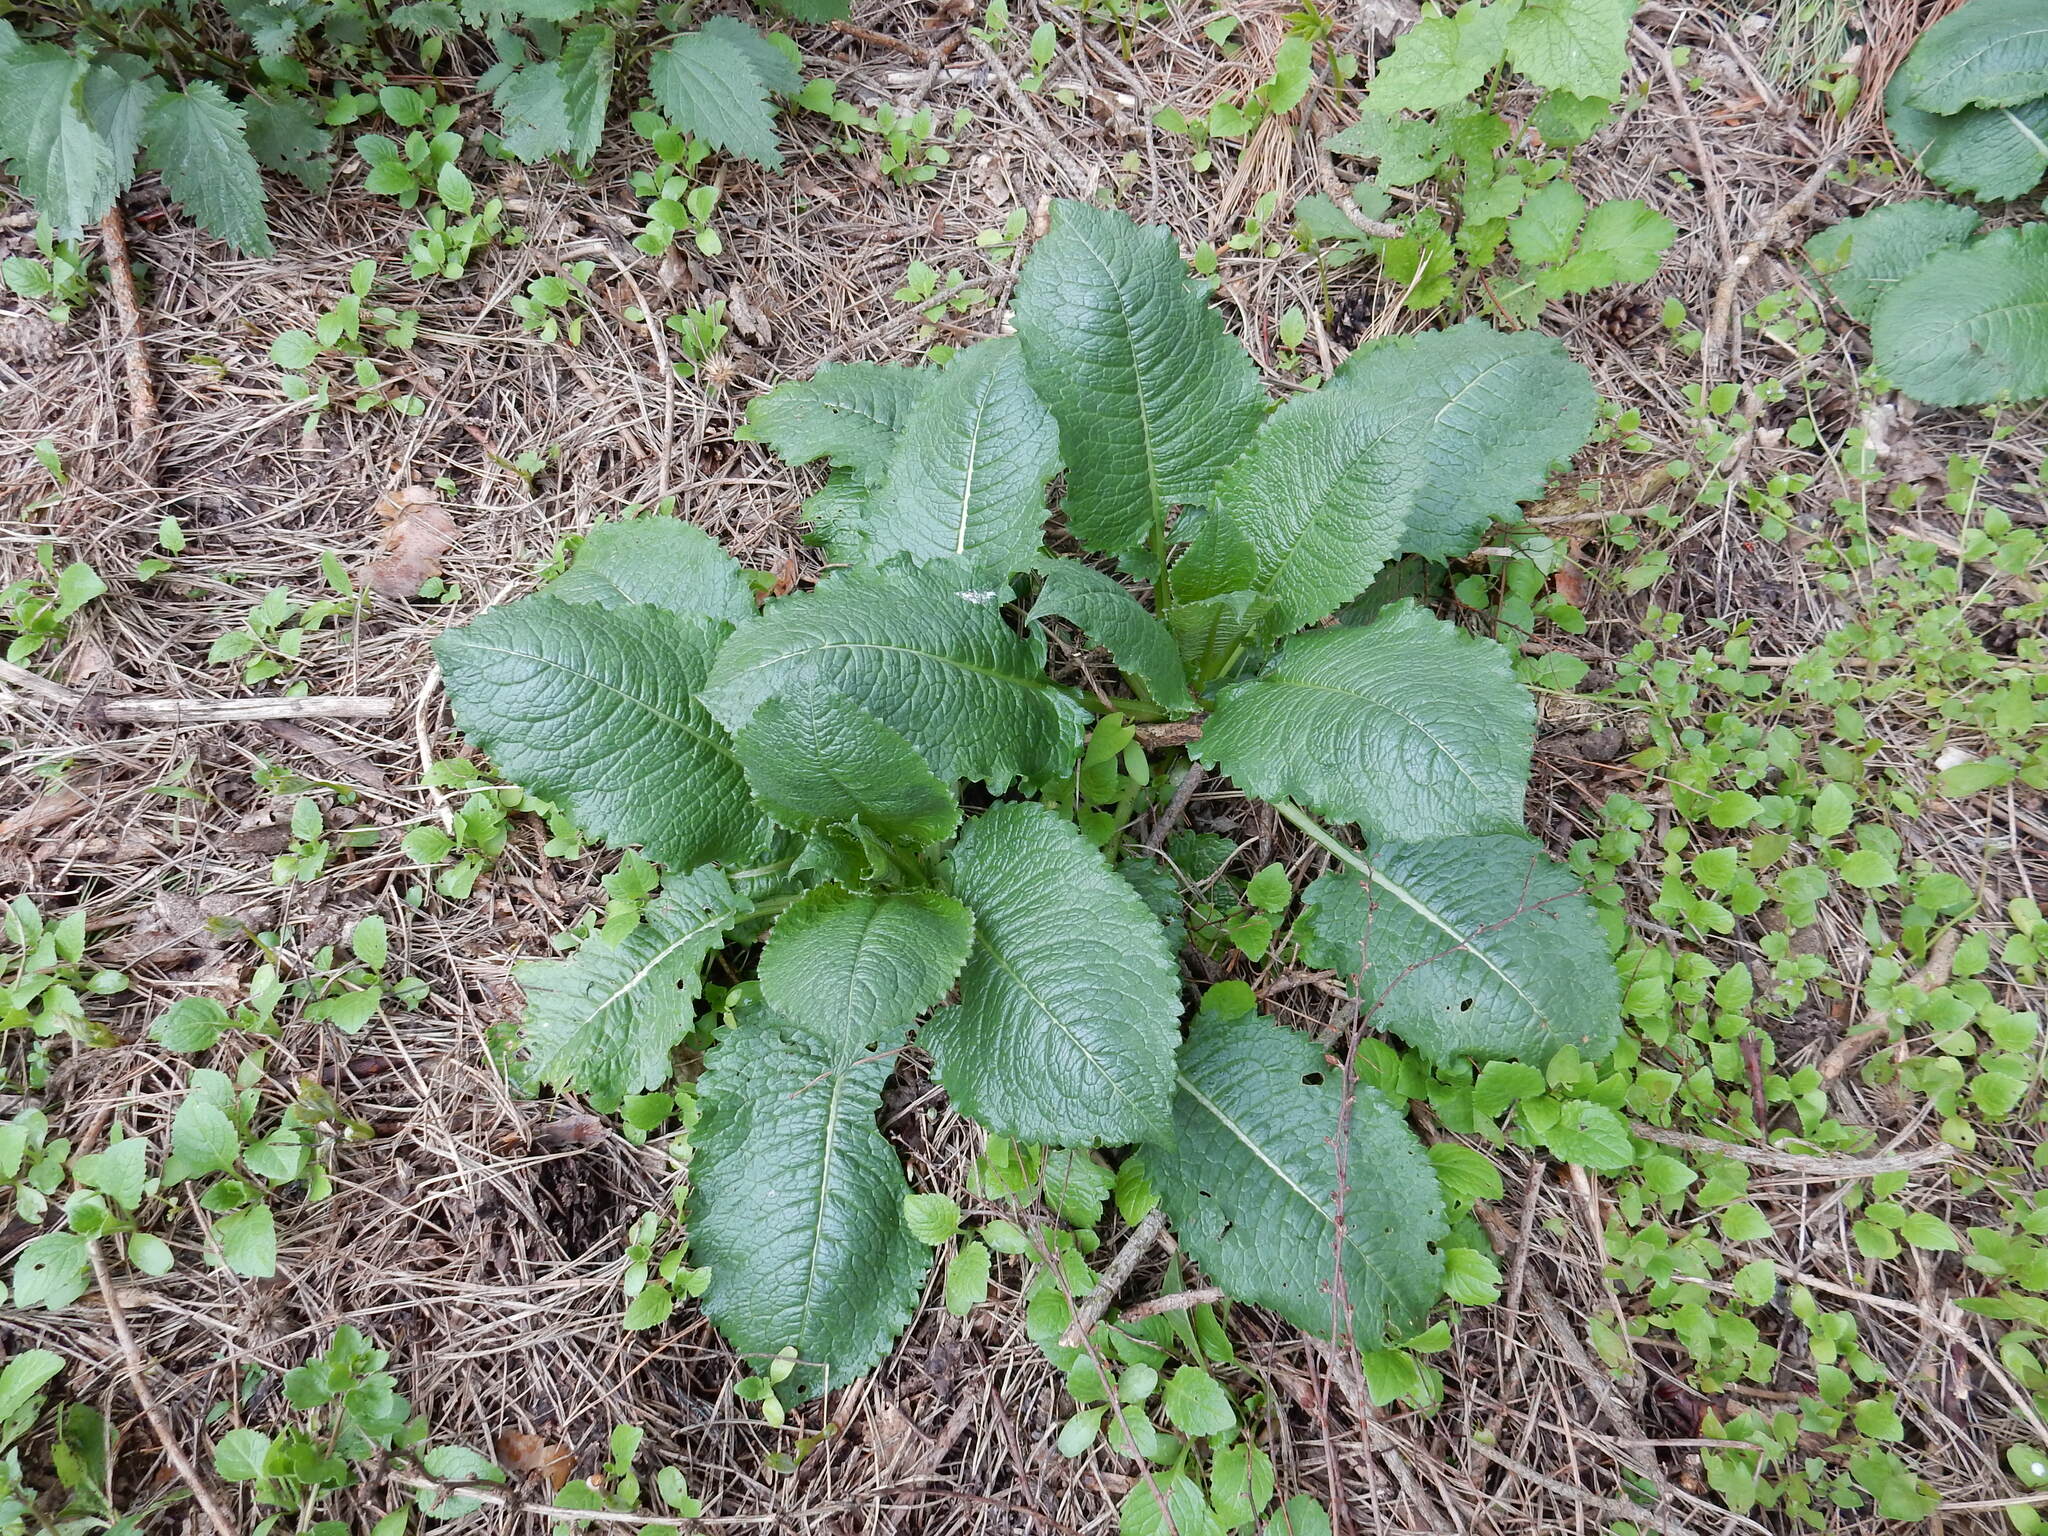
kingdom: Plantae
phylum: Tracheophyta
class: Magnoliopsida
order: Dipsacales
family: Caprifoliaceae
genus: Dipsacus
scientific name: Dipsacus strigosus
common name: Yellow-flowered teasel
